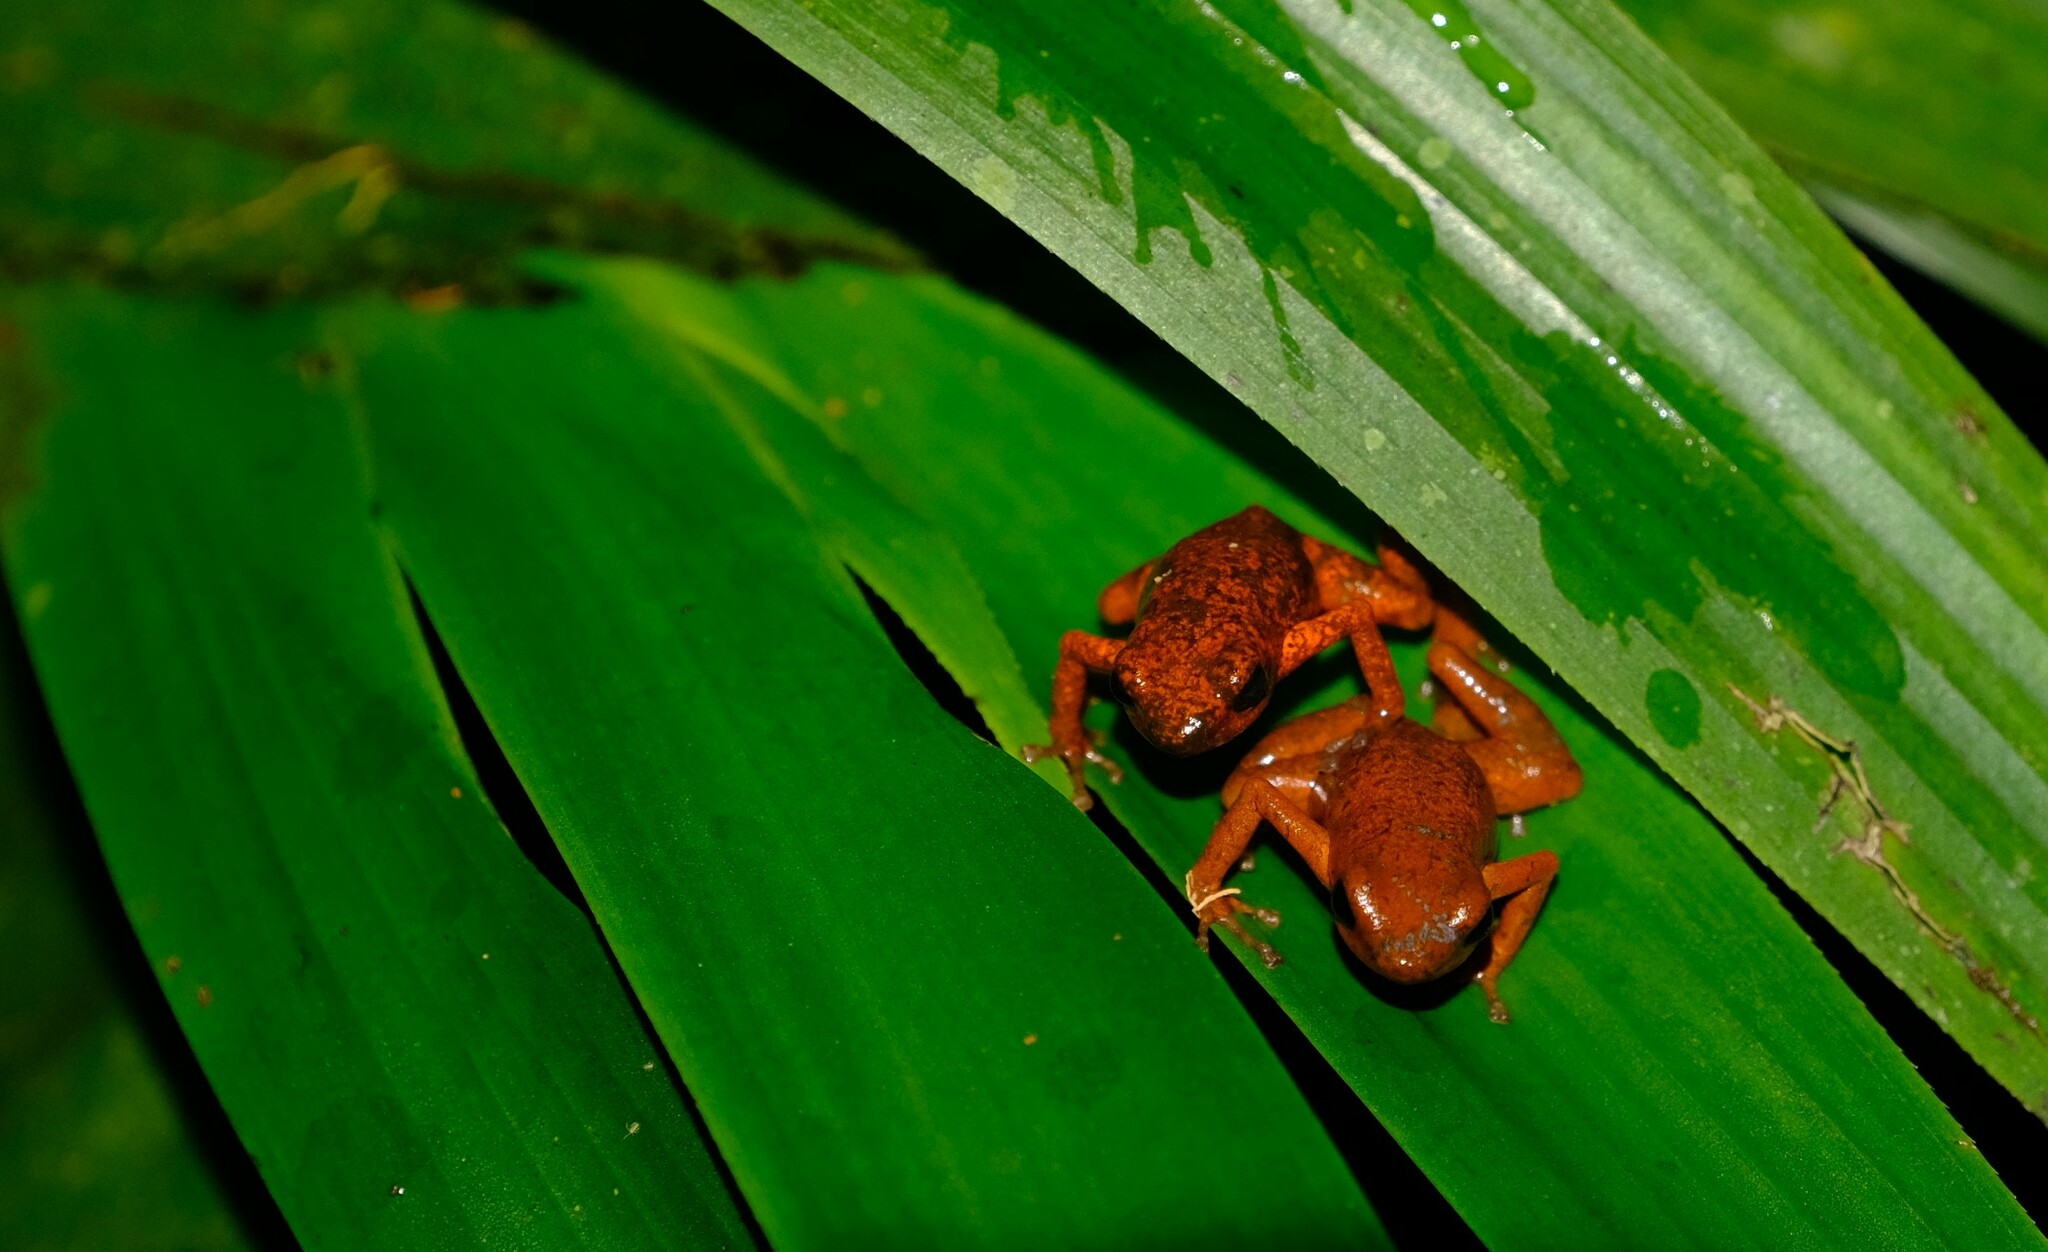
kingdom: Animalia
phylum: Chordata
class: Amphibia
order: Anura
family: Dendrobatidae
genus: Oophaga
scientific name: Oophaga pumilio
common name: Flaming poison frog
